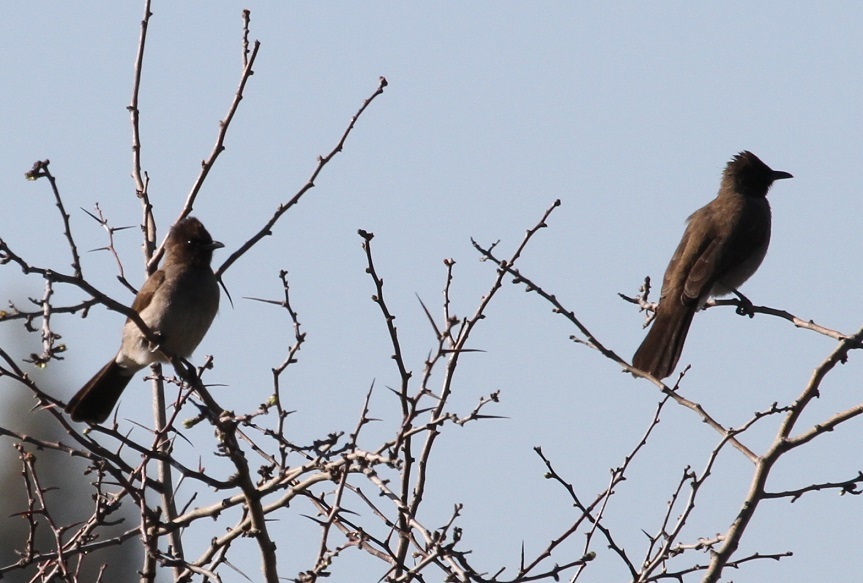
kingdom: Animalia
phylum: Chordata
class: Aves
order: Passeriformes
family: Pycnonotidae
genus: Pycnonotus
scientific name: Pycnonotus barbatus
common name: Common bulbul
